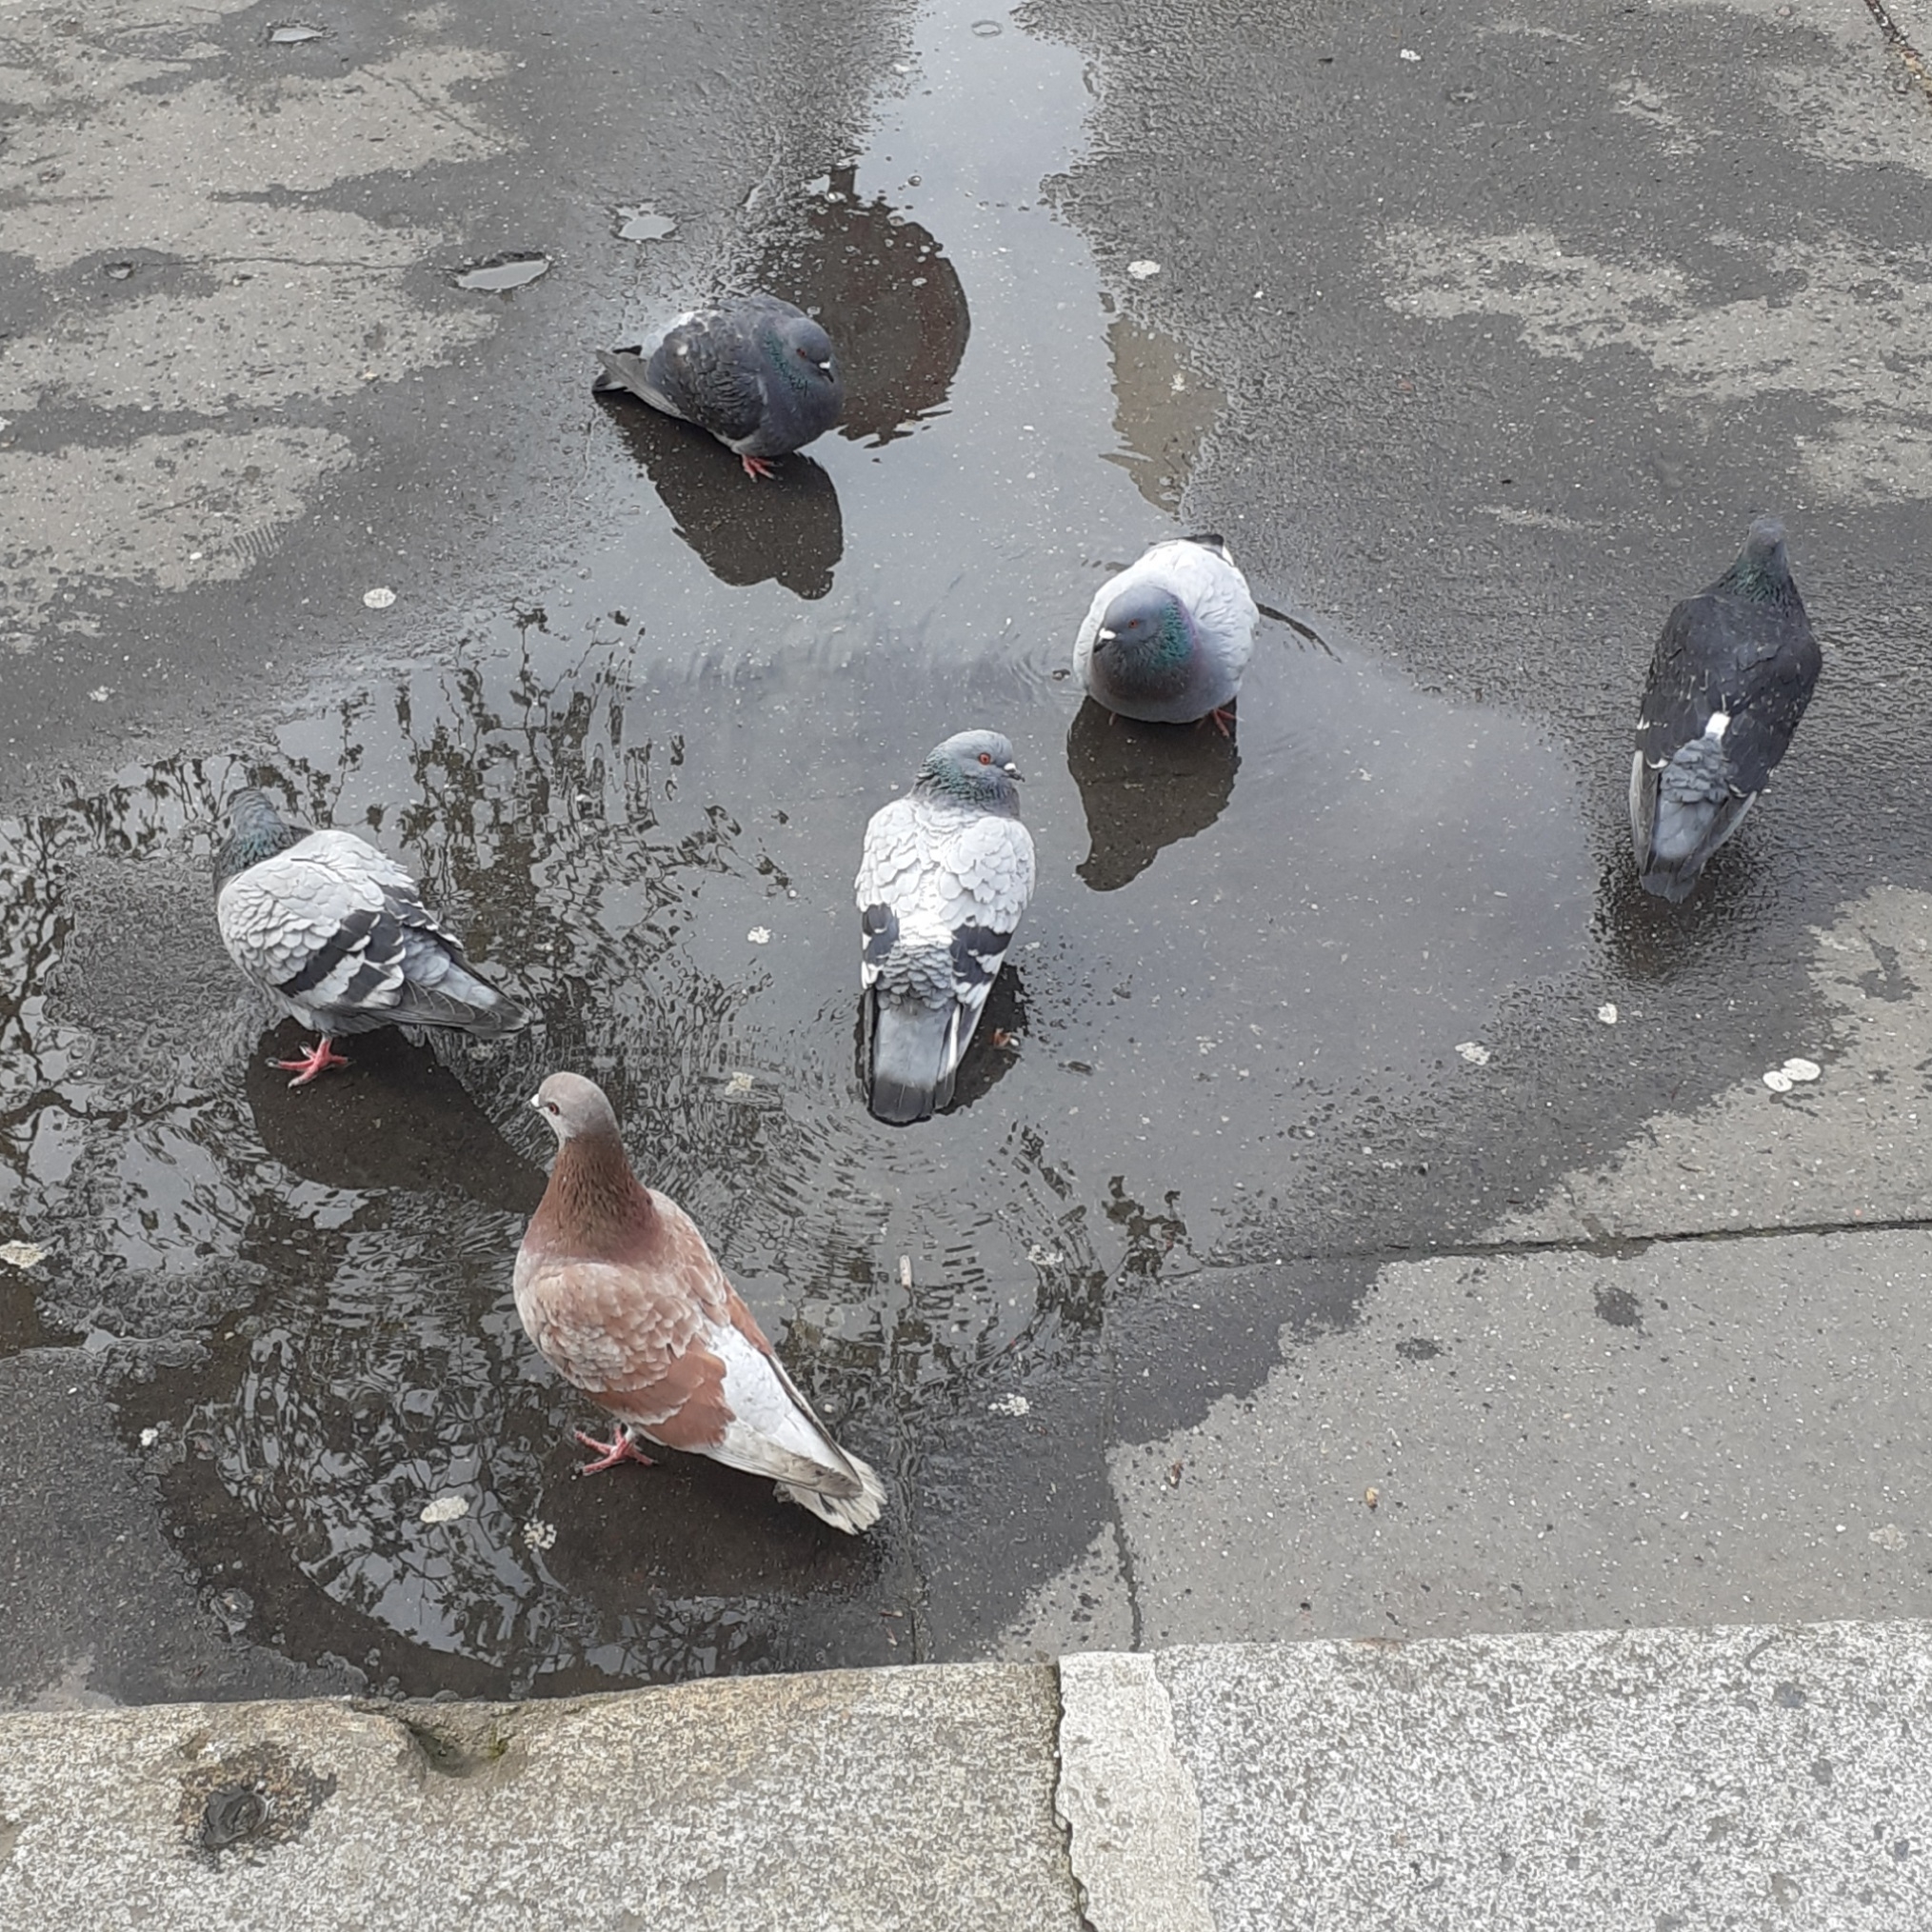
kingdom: Animalia
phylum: Chordata
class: Aves
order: Columbiformes
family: Columbidae
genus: Columba
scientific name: Columba livia
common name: Rock pigeon
